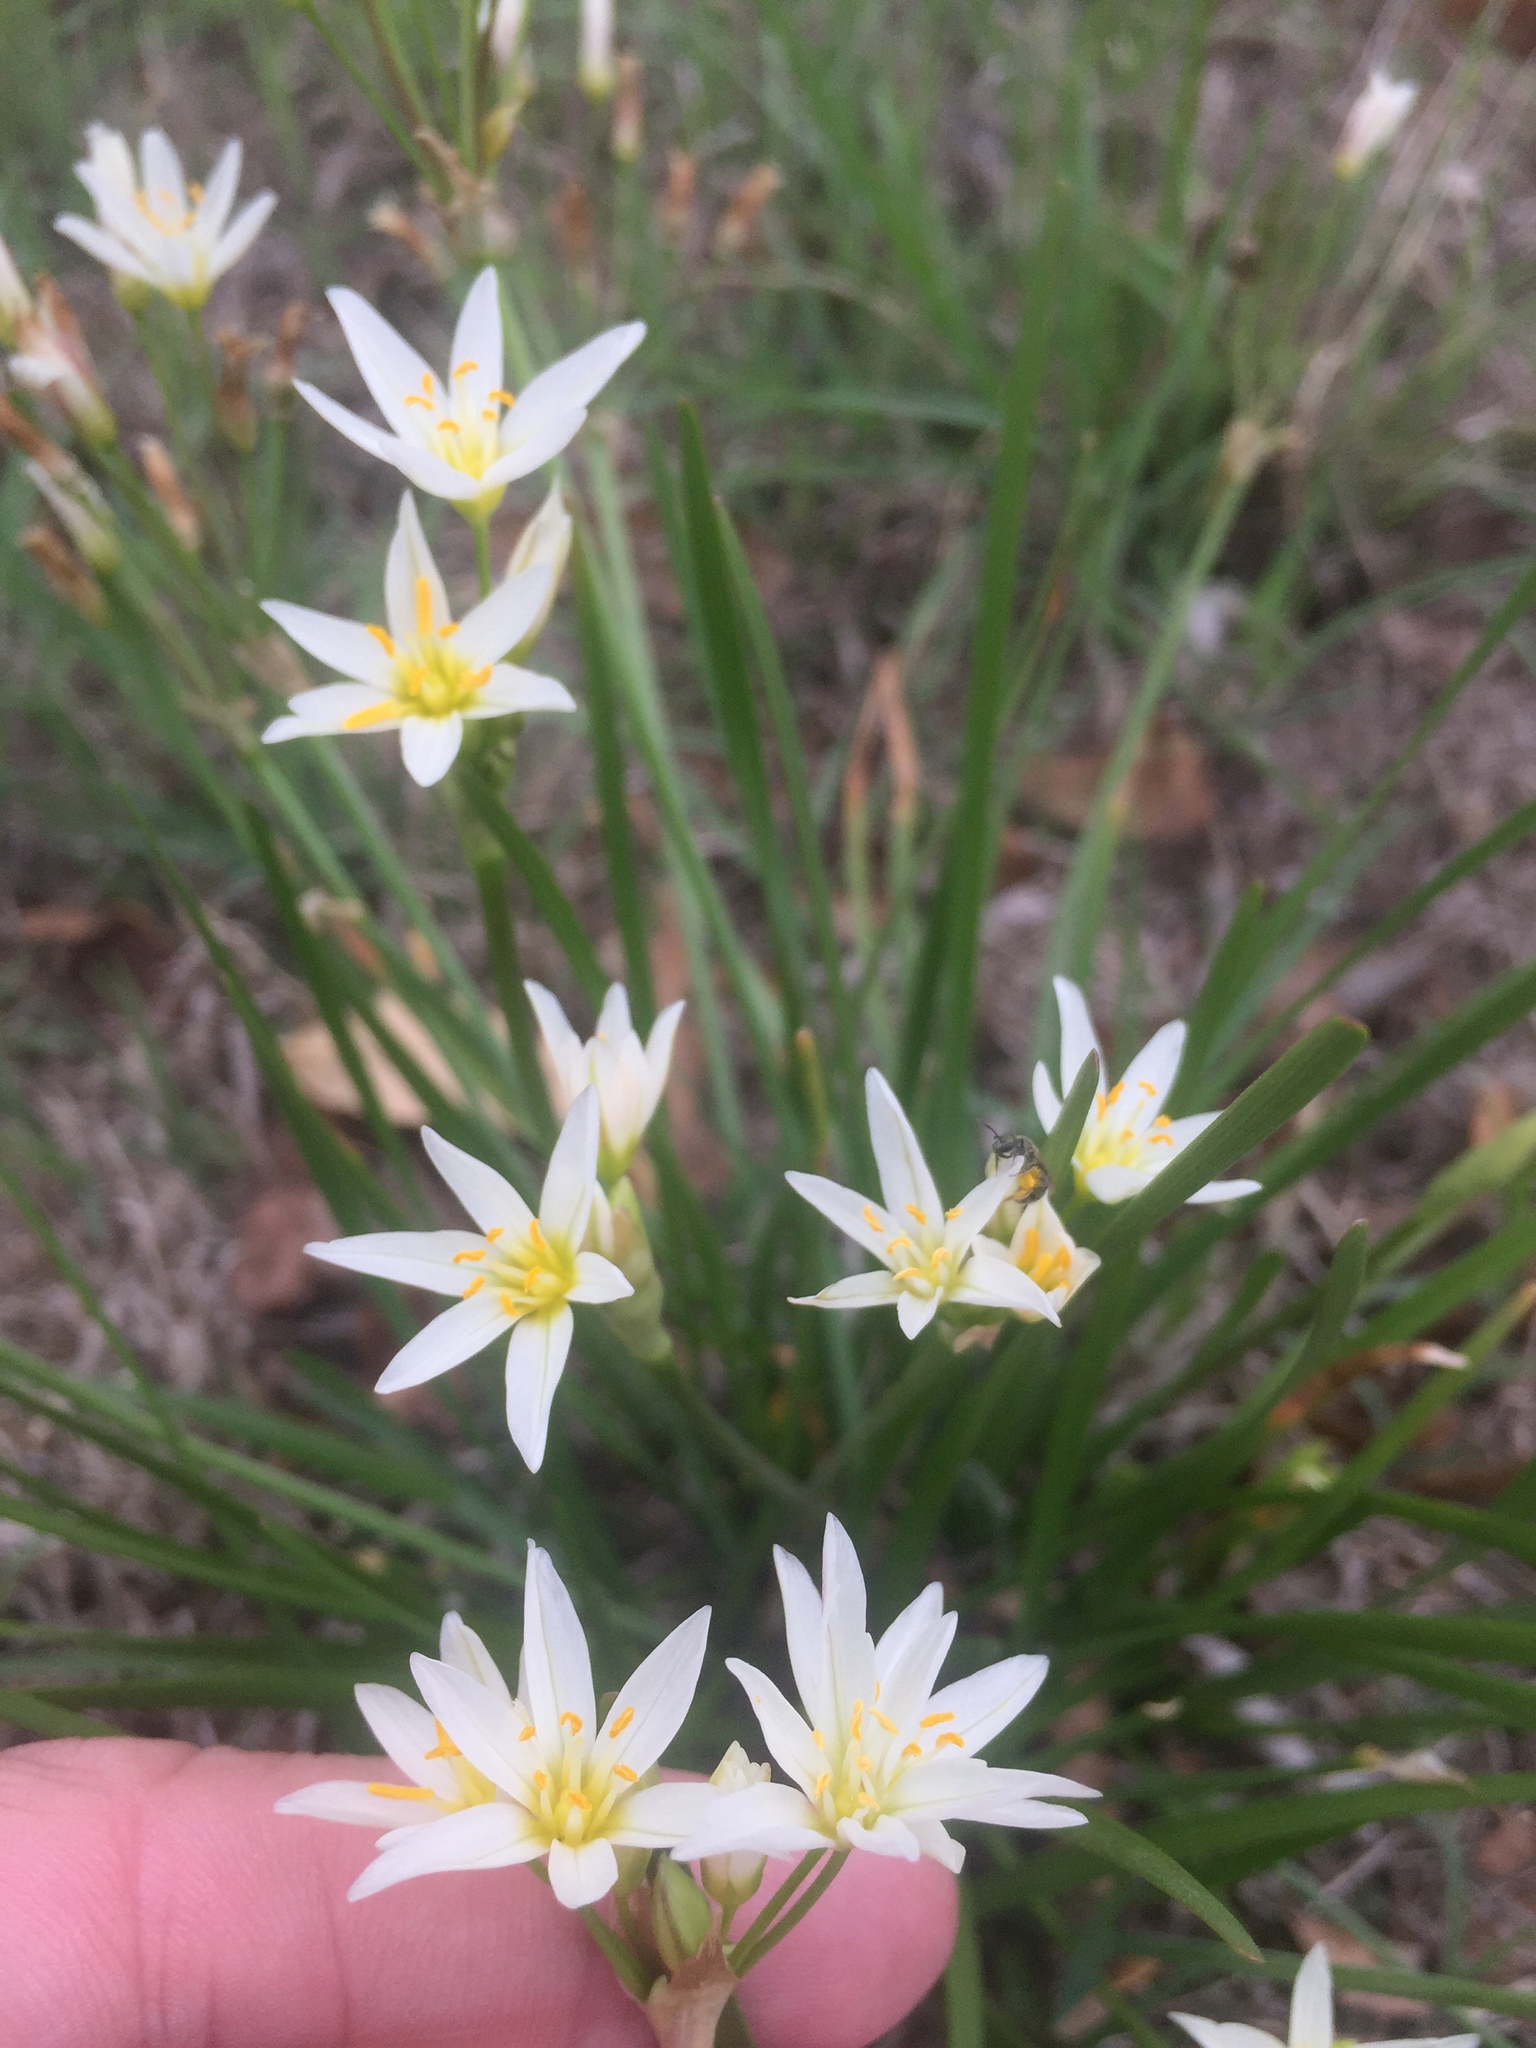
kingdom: Plantae
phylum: Tracheophyta
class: Liliopsida
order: Asparagales
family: Amaryllidaceae
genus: Nothoscordum
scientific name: Nothoscordum bivalve
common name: Crow-poison
